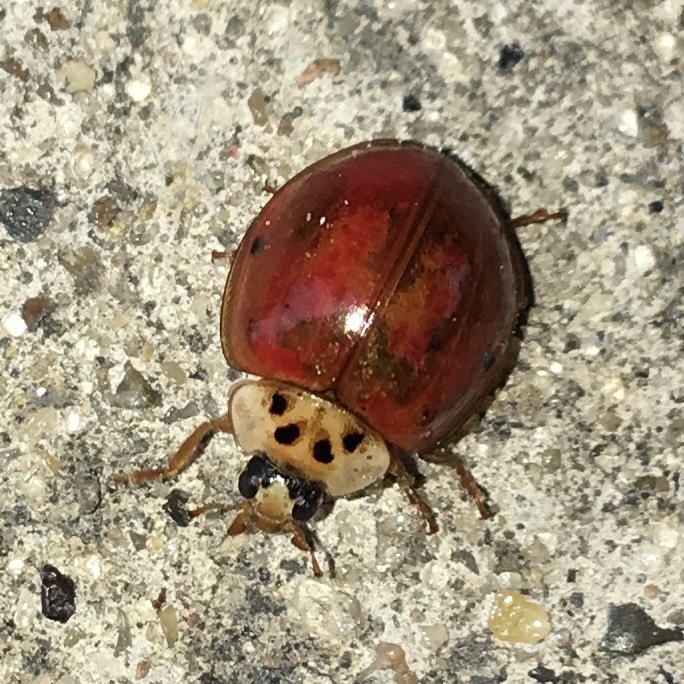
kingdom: Animalia
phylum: Arthropoda
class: Insecta
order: Coleoptera
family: Coccinellidae
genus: Harmonia
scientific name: Harmonia axyridis
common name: Harlequin ladybird
